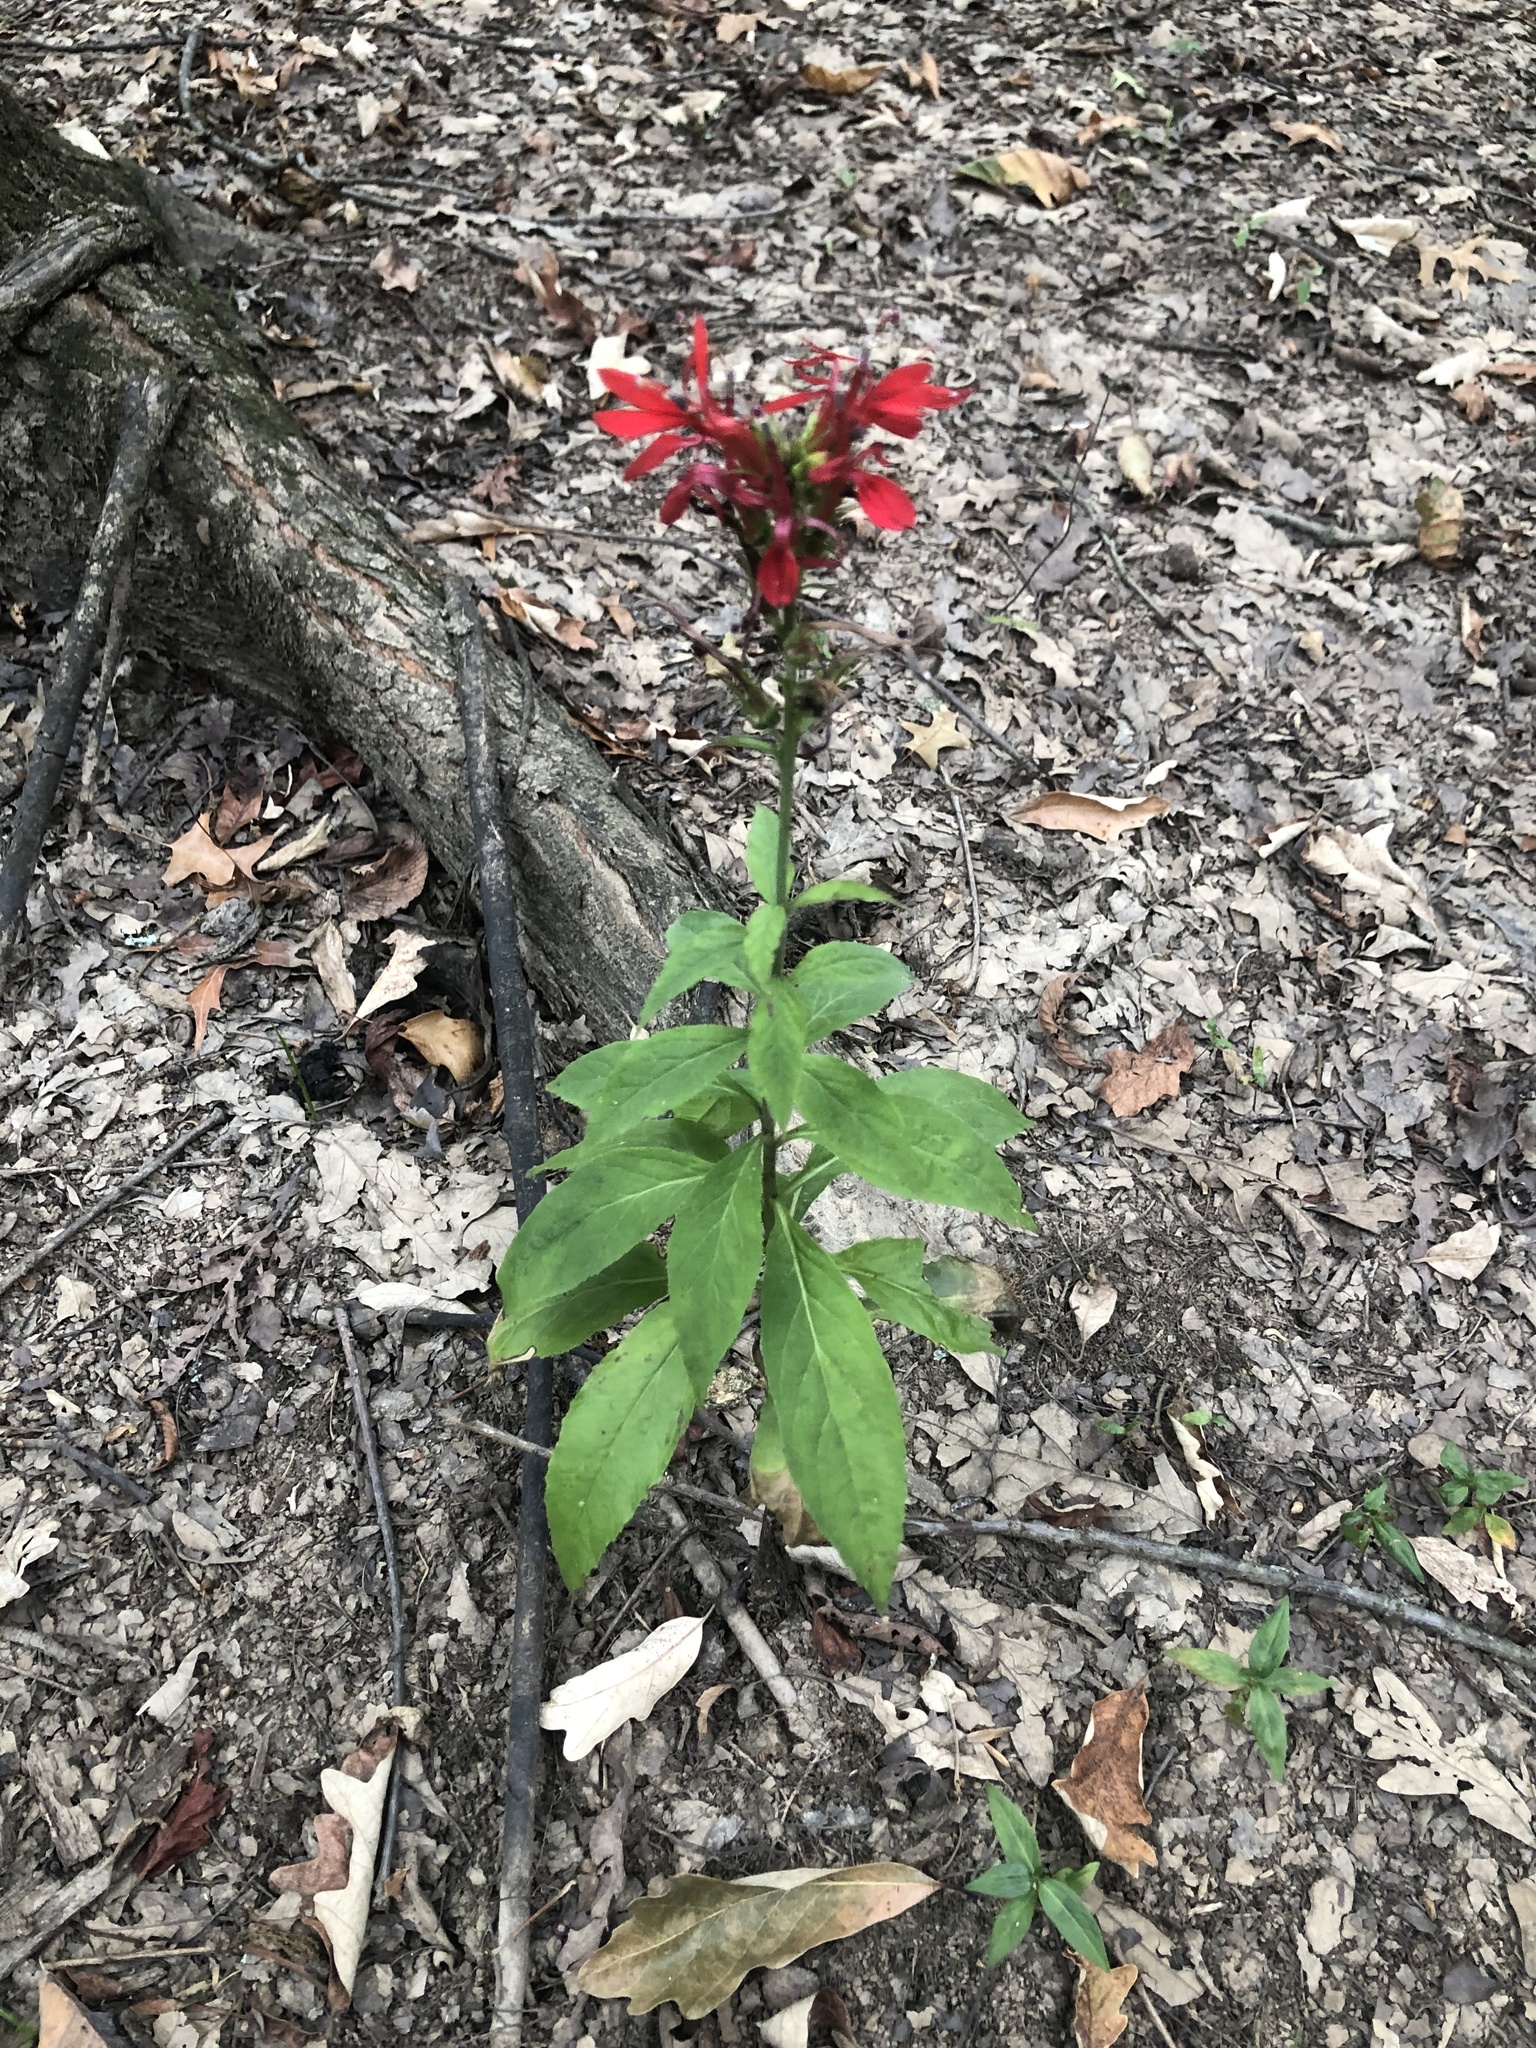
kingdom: Plantae
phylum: Tracheophyta
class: Magnoliopsida
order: Asterales
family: Campanulaceae
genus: Lobelia
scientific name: Lobelia cardinalis
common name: Cardinal flower
